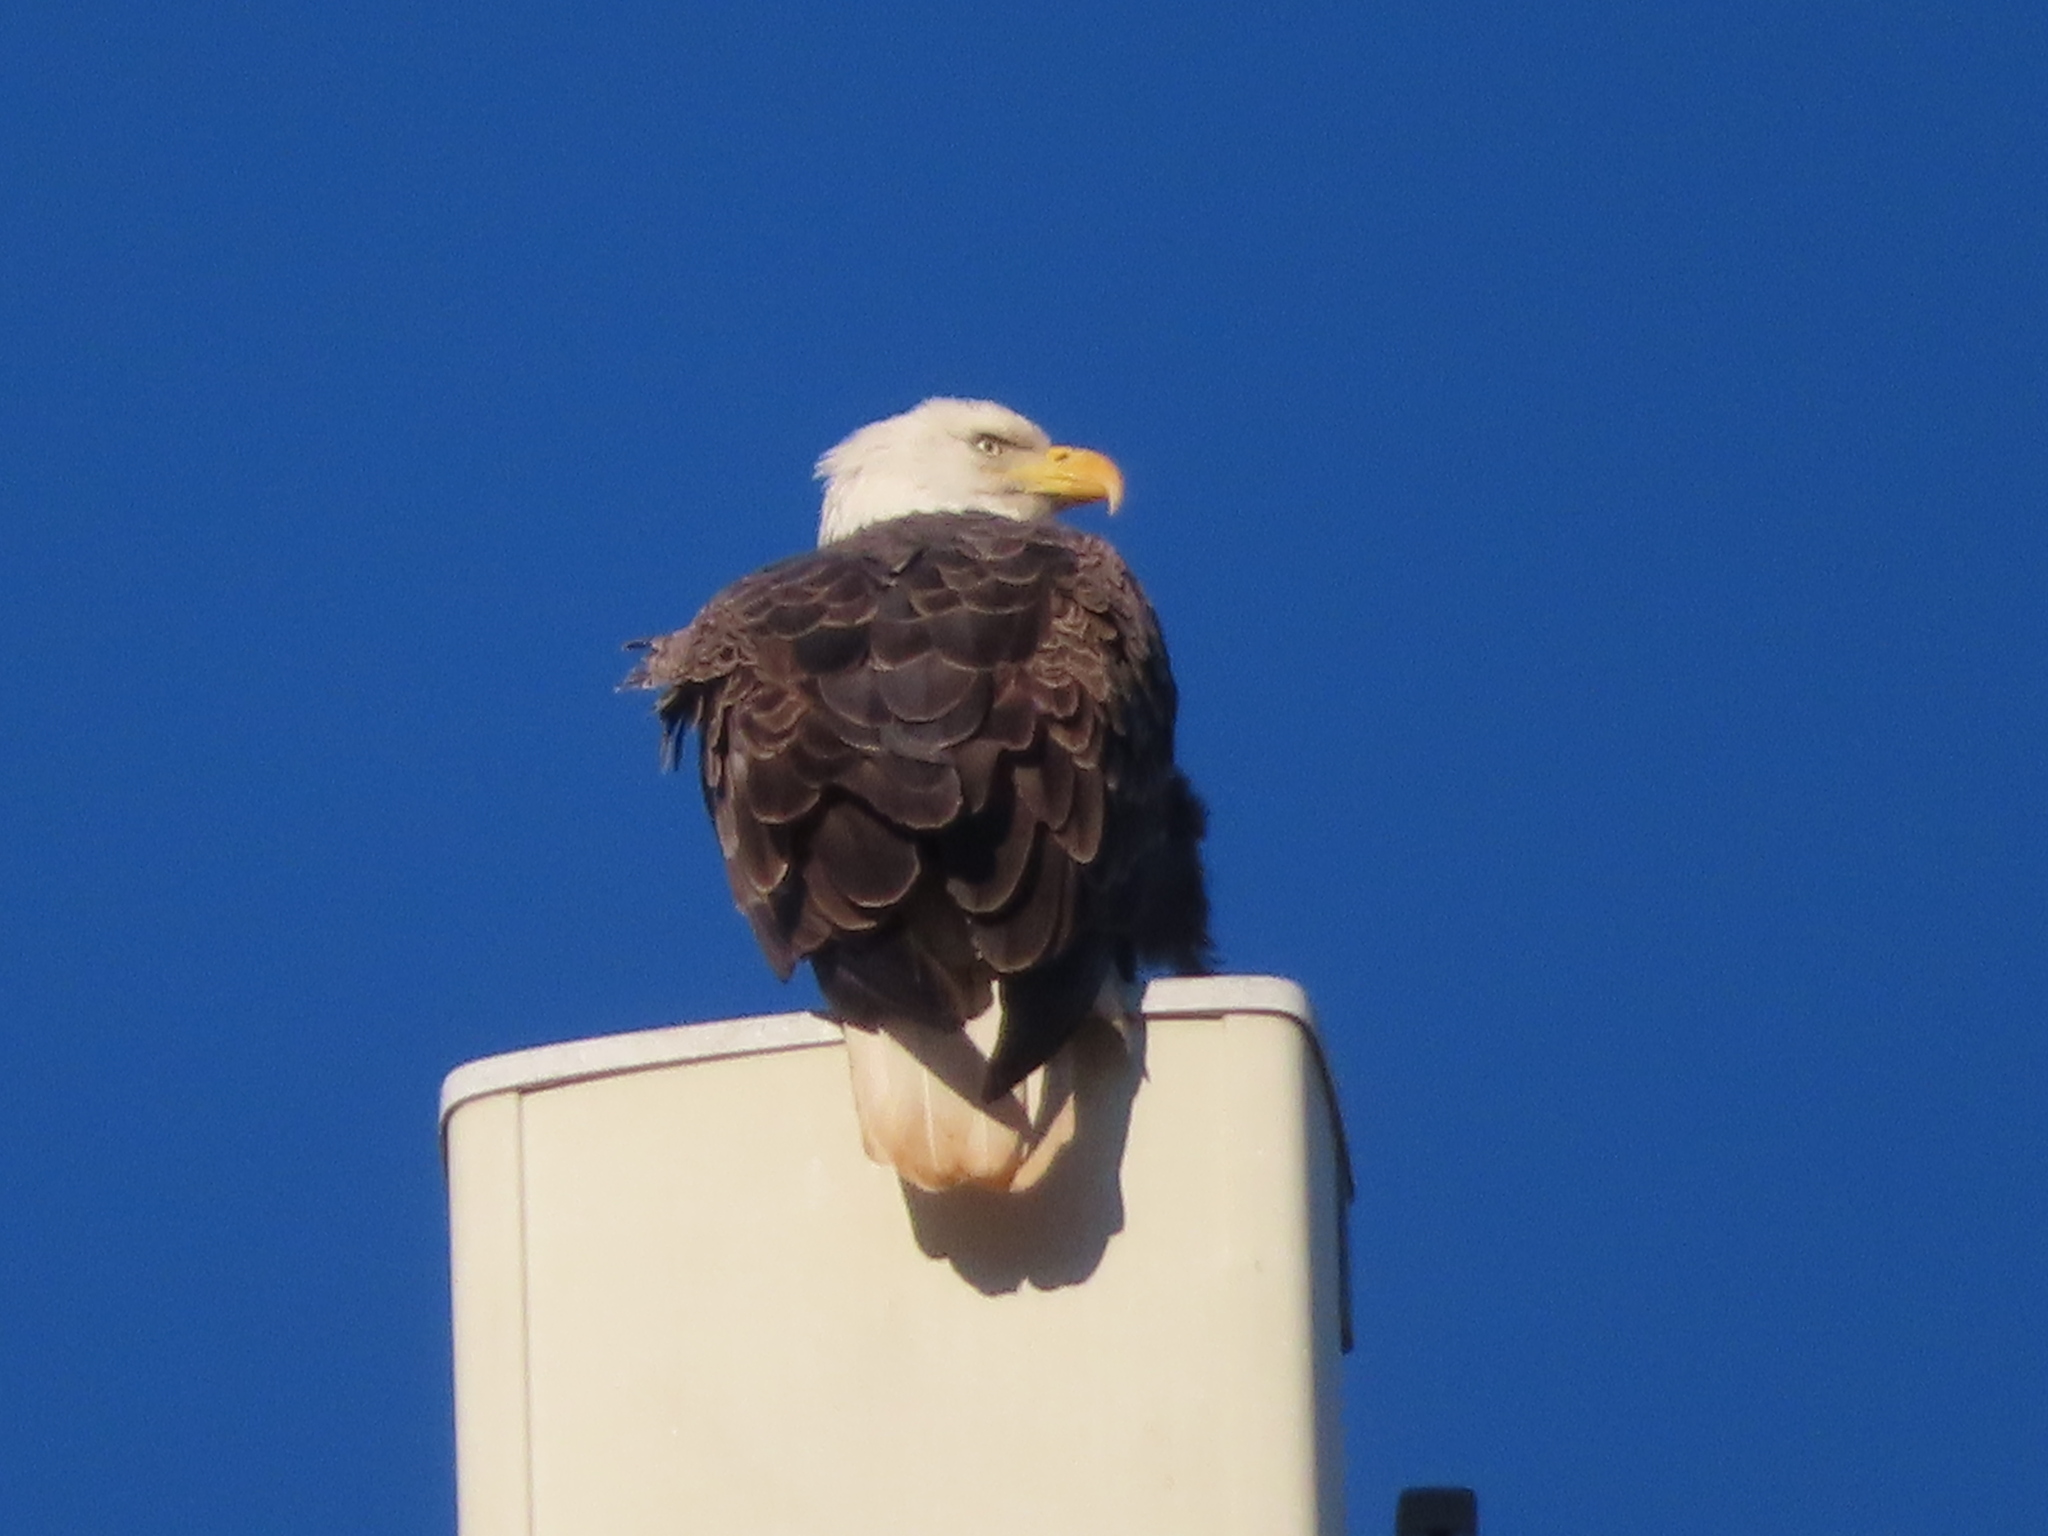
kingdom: Animalia
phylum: Chordata
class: Aves
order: Accipitriformes
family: Accipitridae
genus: Haliaeetus
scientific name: Haliaeetus leucocephalus
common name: Bald eagle
